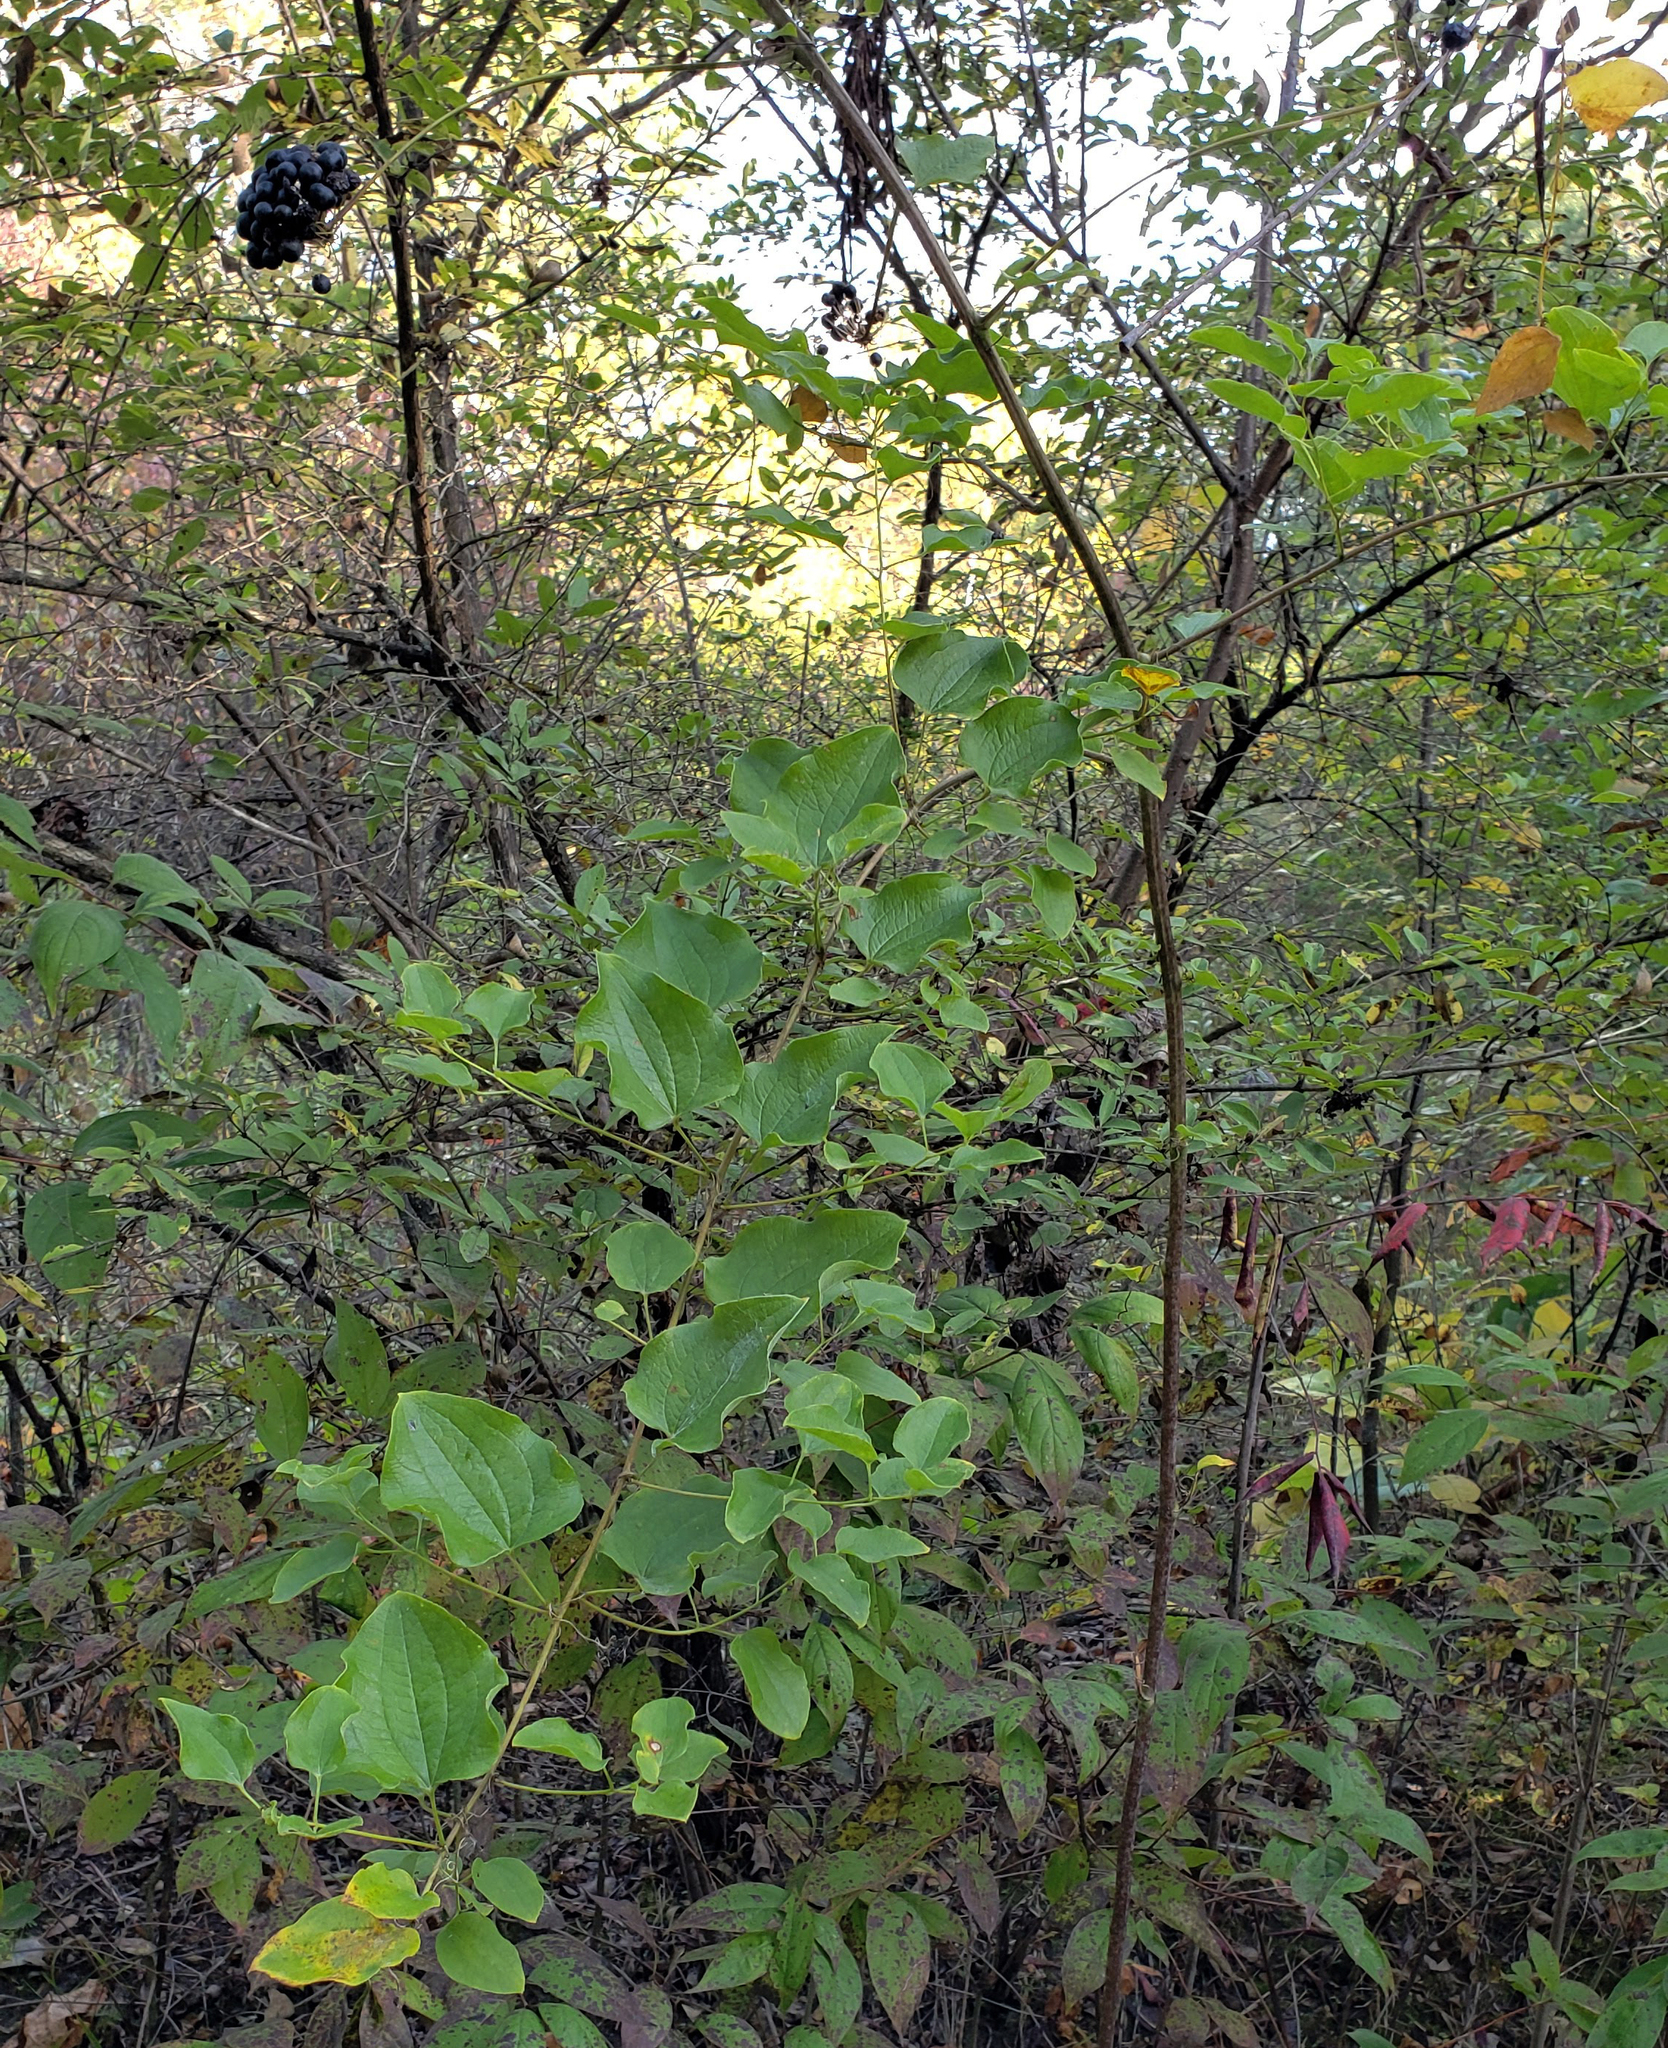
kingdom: Plantae
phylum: Tracheophyta
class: Liliopsida
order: Liliales
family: Smilacaceae
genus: Smilax
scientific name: Smilax lasioneura
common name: Blue ridge carrionflower
